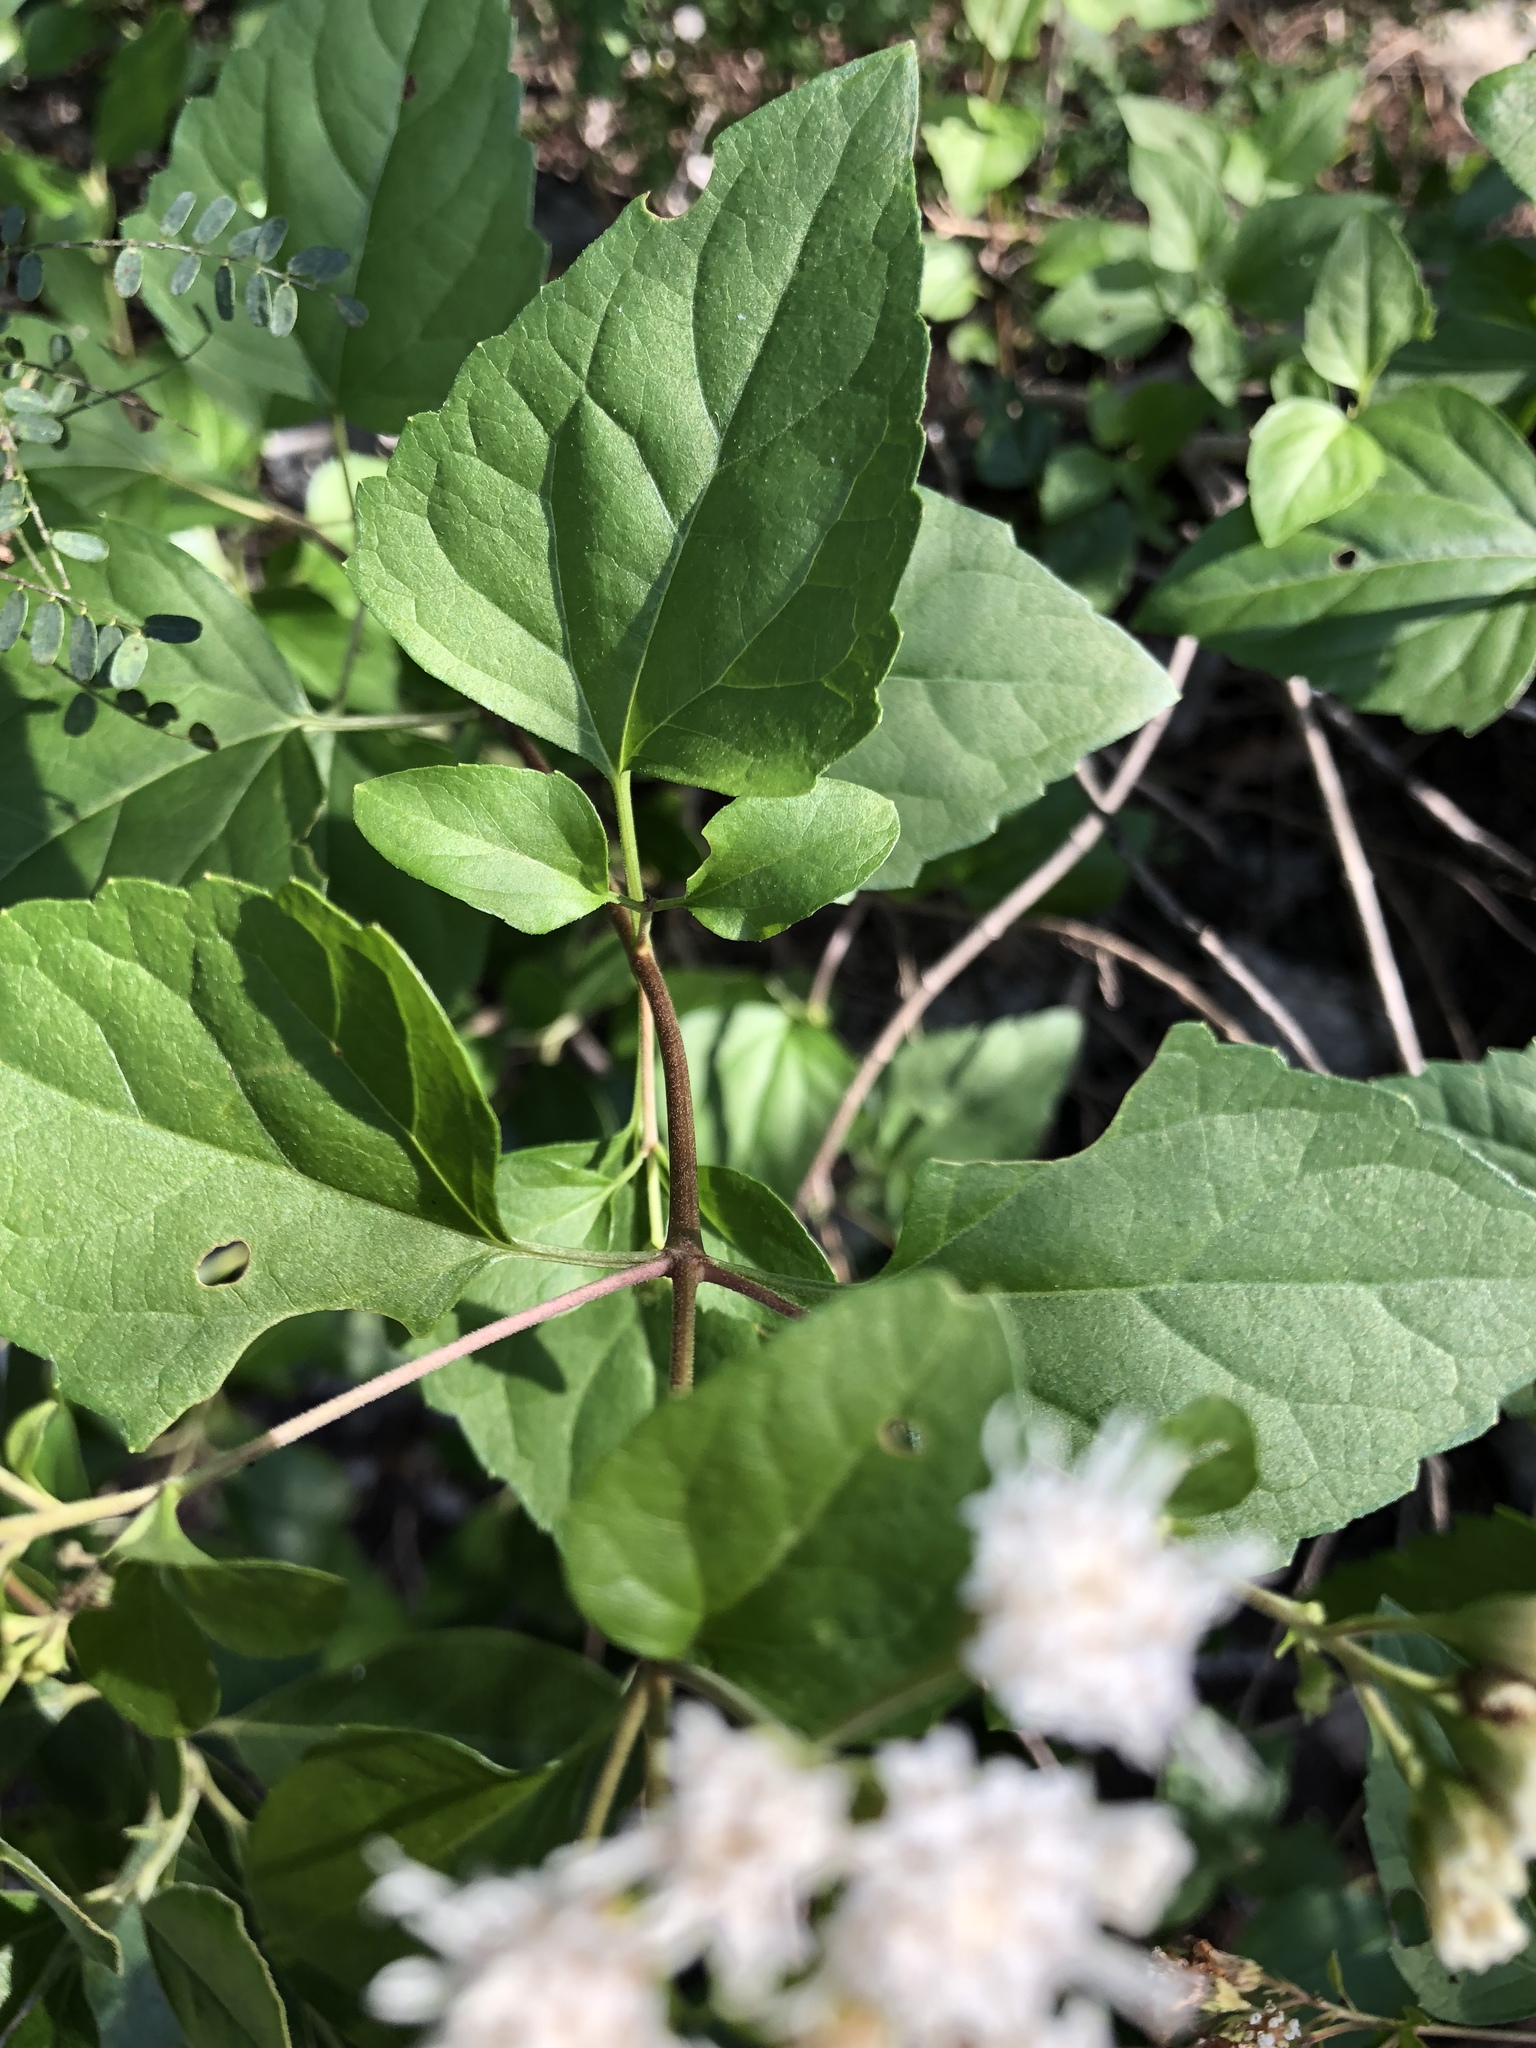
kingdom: Plantae
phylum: Tracheophyta
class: Magnoliopsida
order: Asterales
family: Asteraceae
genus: Ageratina
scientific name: Ageratina havanensis
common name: Havana snakeroot
